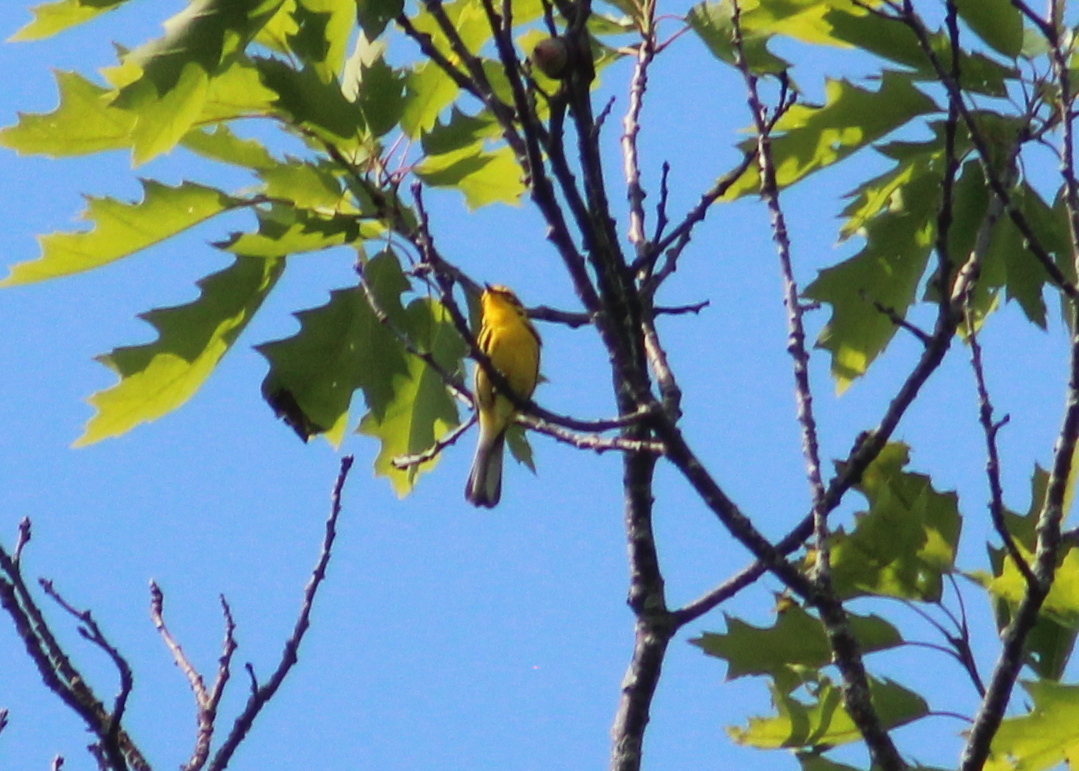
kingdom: Animalia
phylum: Chordata
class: Aves
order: Passeriformes
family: Parulidae
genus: Setophaga
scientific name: Setophaga discolor
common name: Prairie warbler
